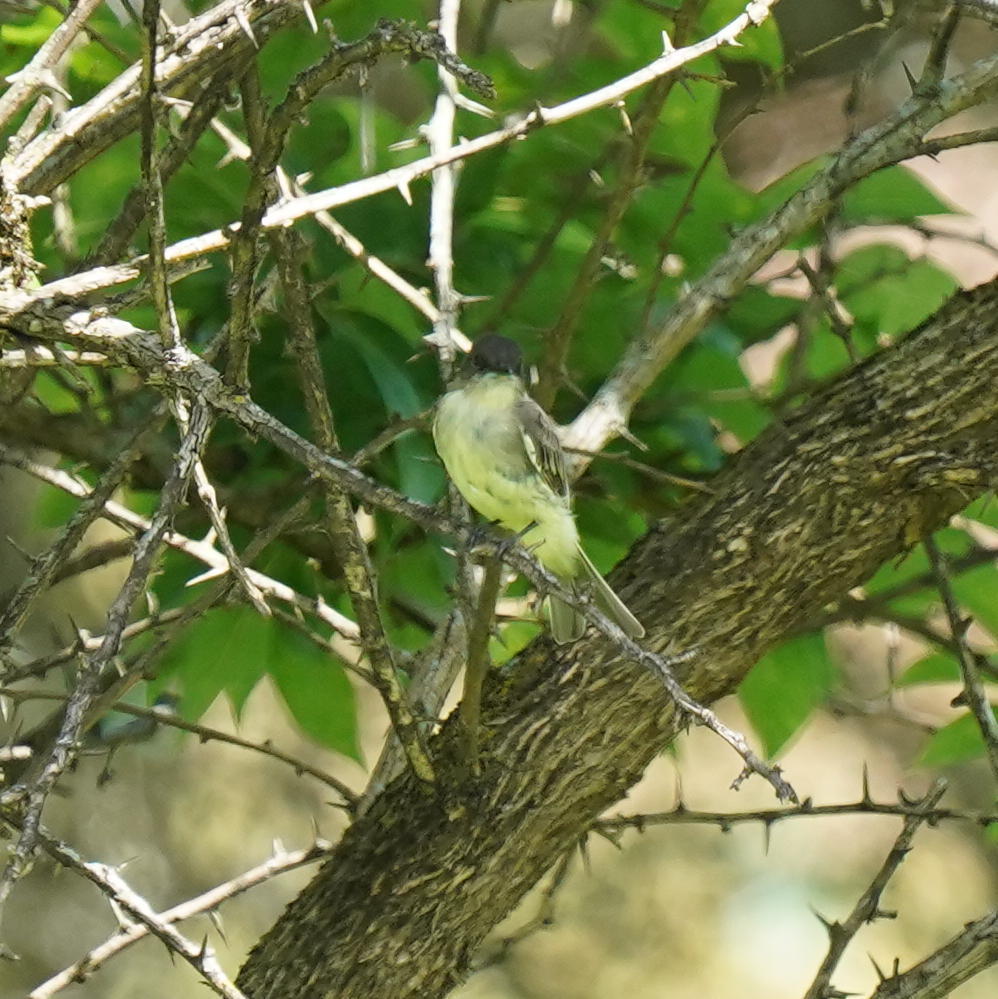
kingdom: Animalia
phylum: Chordata
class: Aves
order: Passeriformes
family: Tyrannidae
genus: Sayornis
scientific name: Sayornis phoebe
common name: Eastern phoebe
